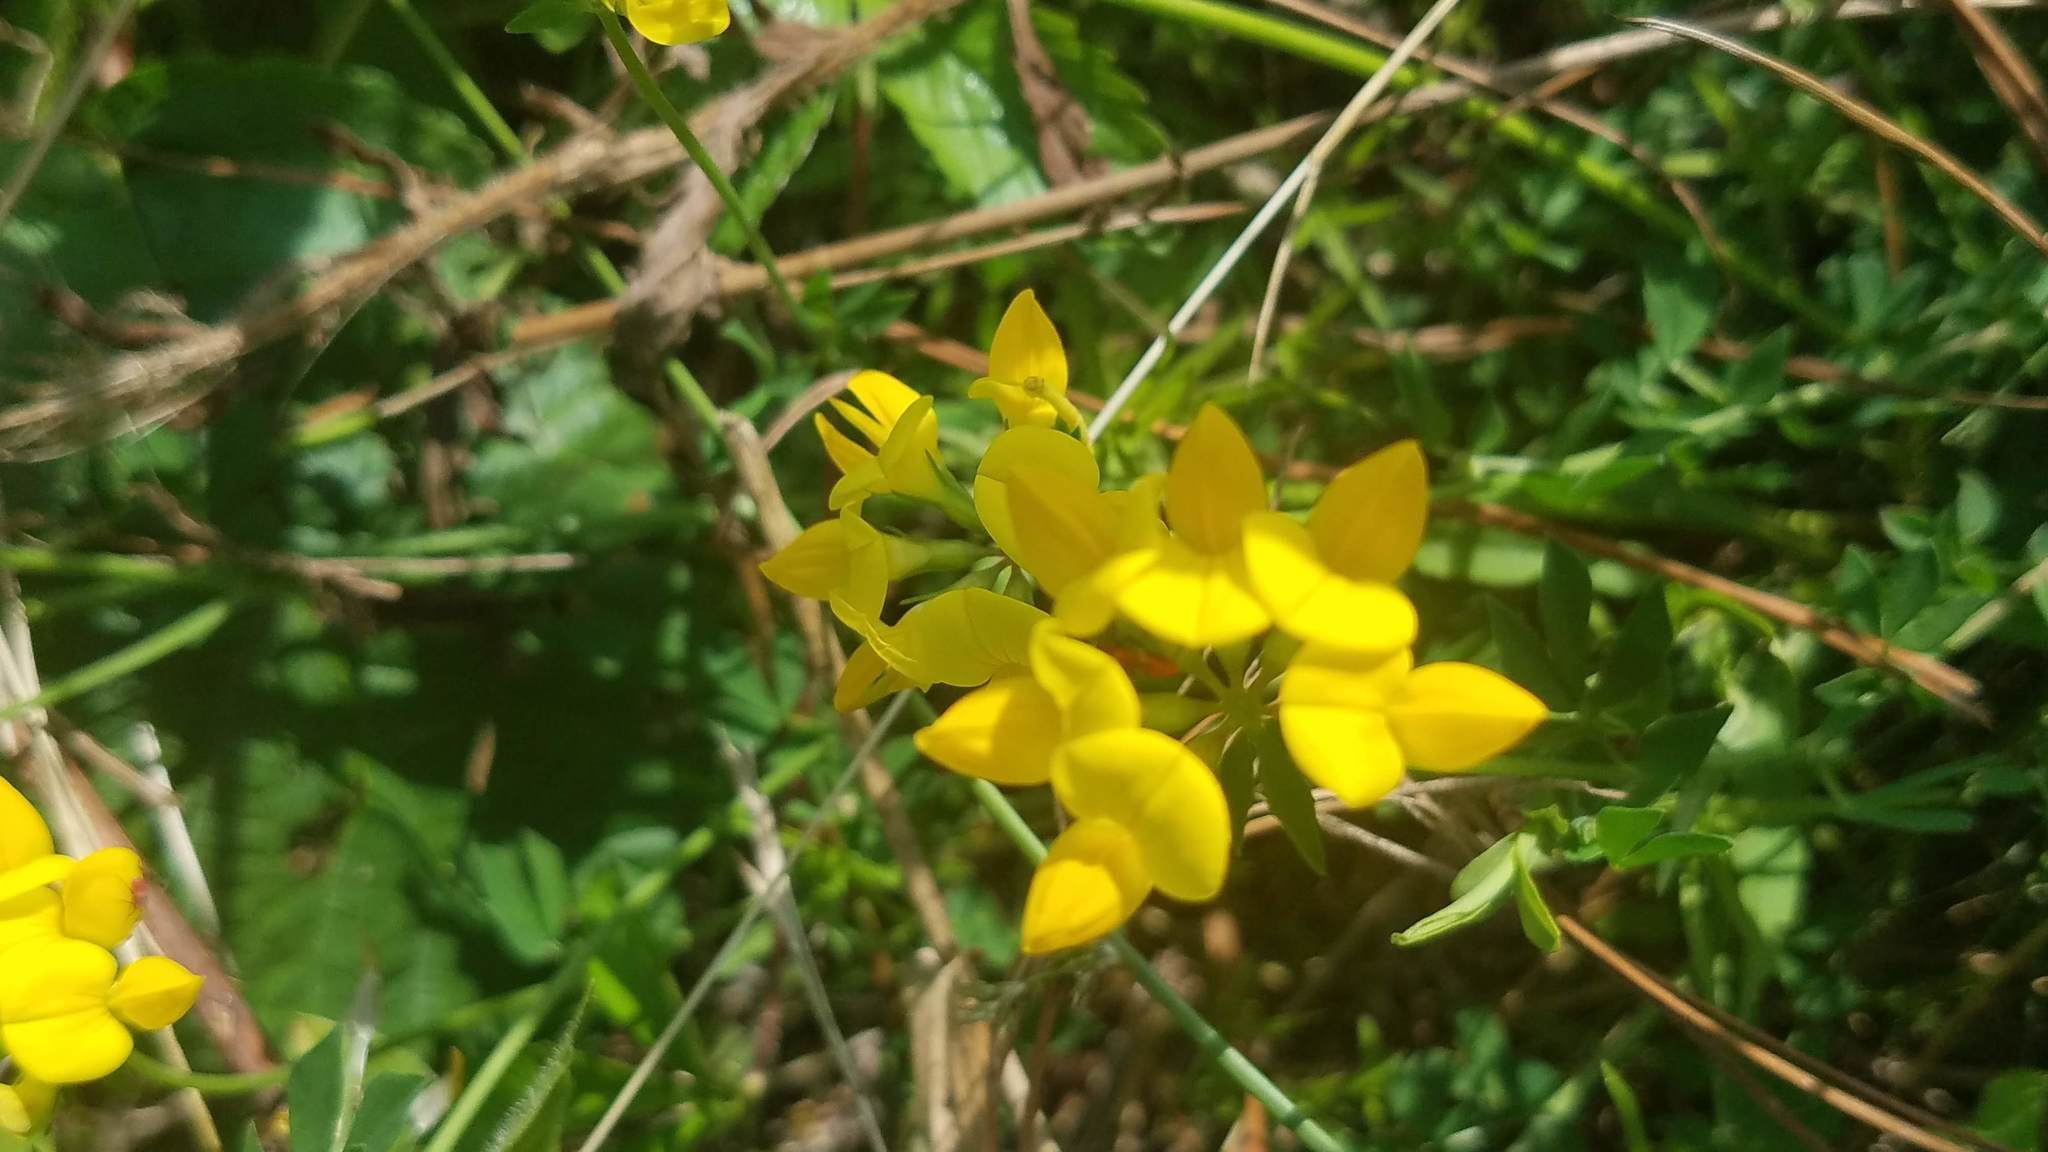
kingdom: Plantae
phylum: Tracheophyta
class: Magnoliopsida
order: Fabales
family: Fabaceae
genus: Lotus
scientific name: Lotus corniculatus
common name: Common bird's-foot-trefoil
